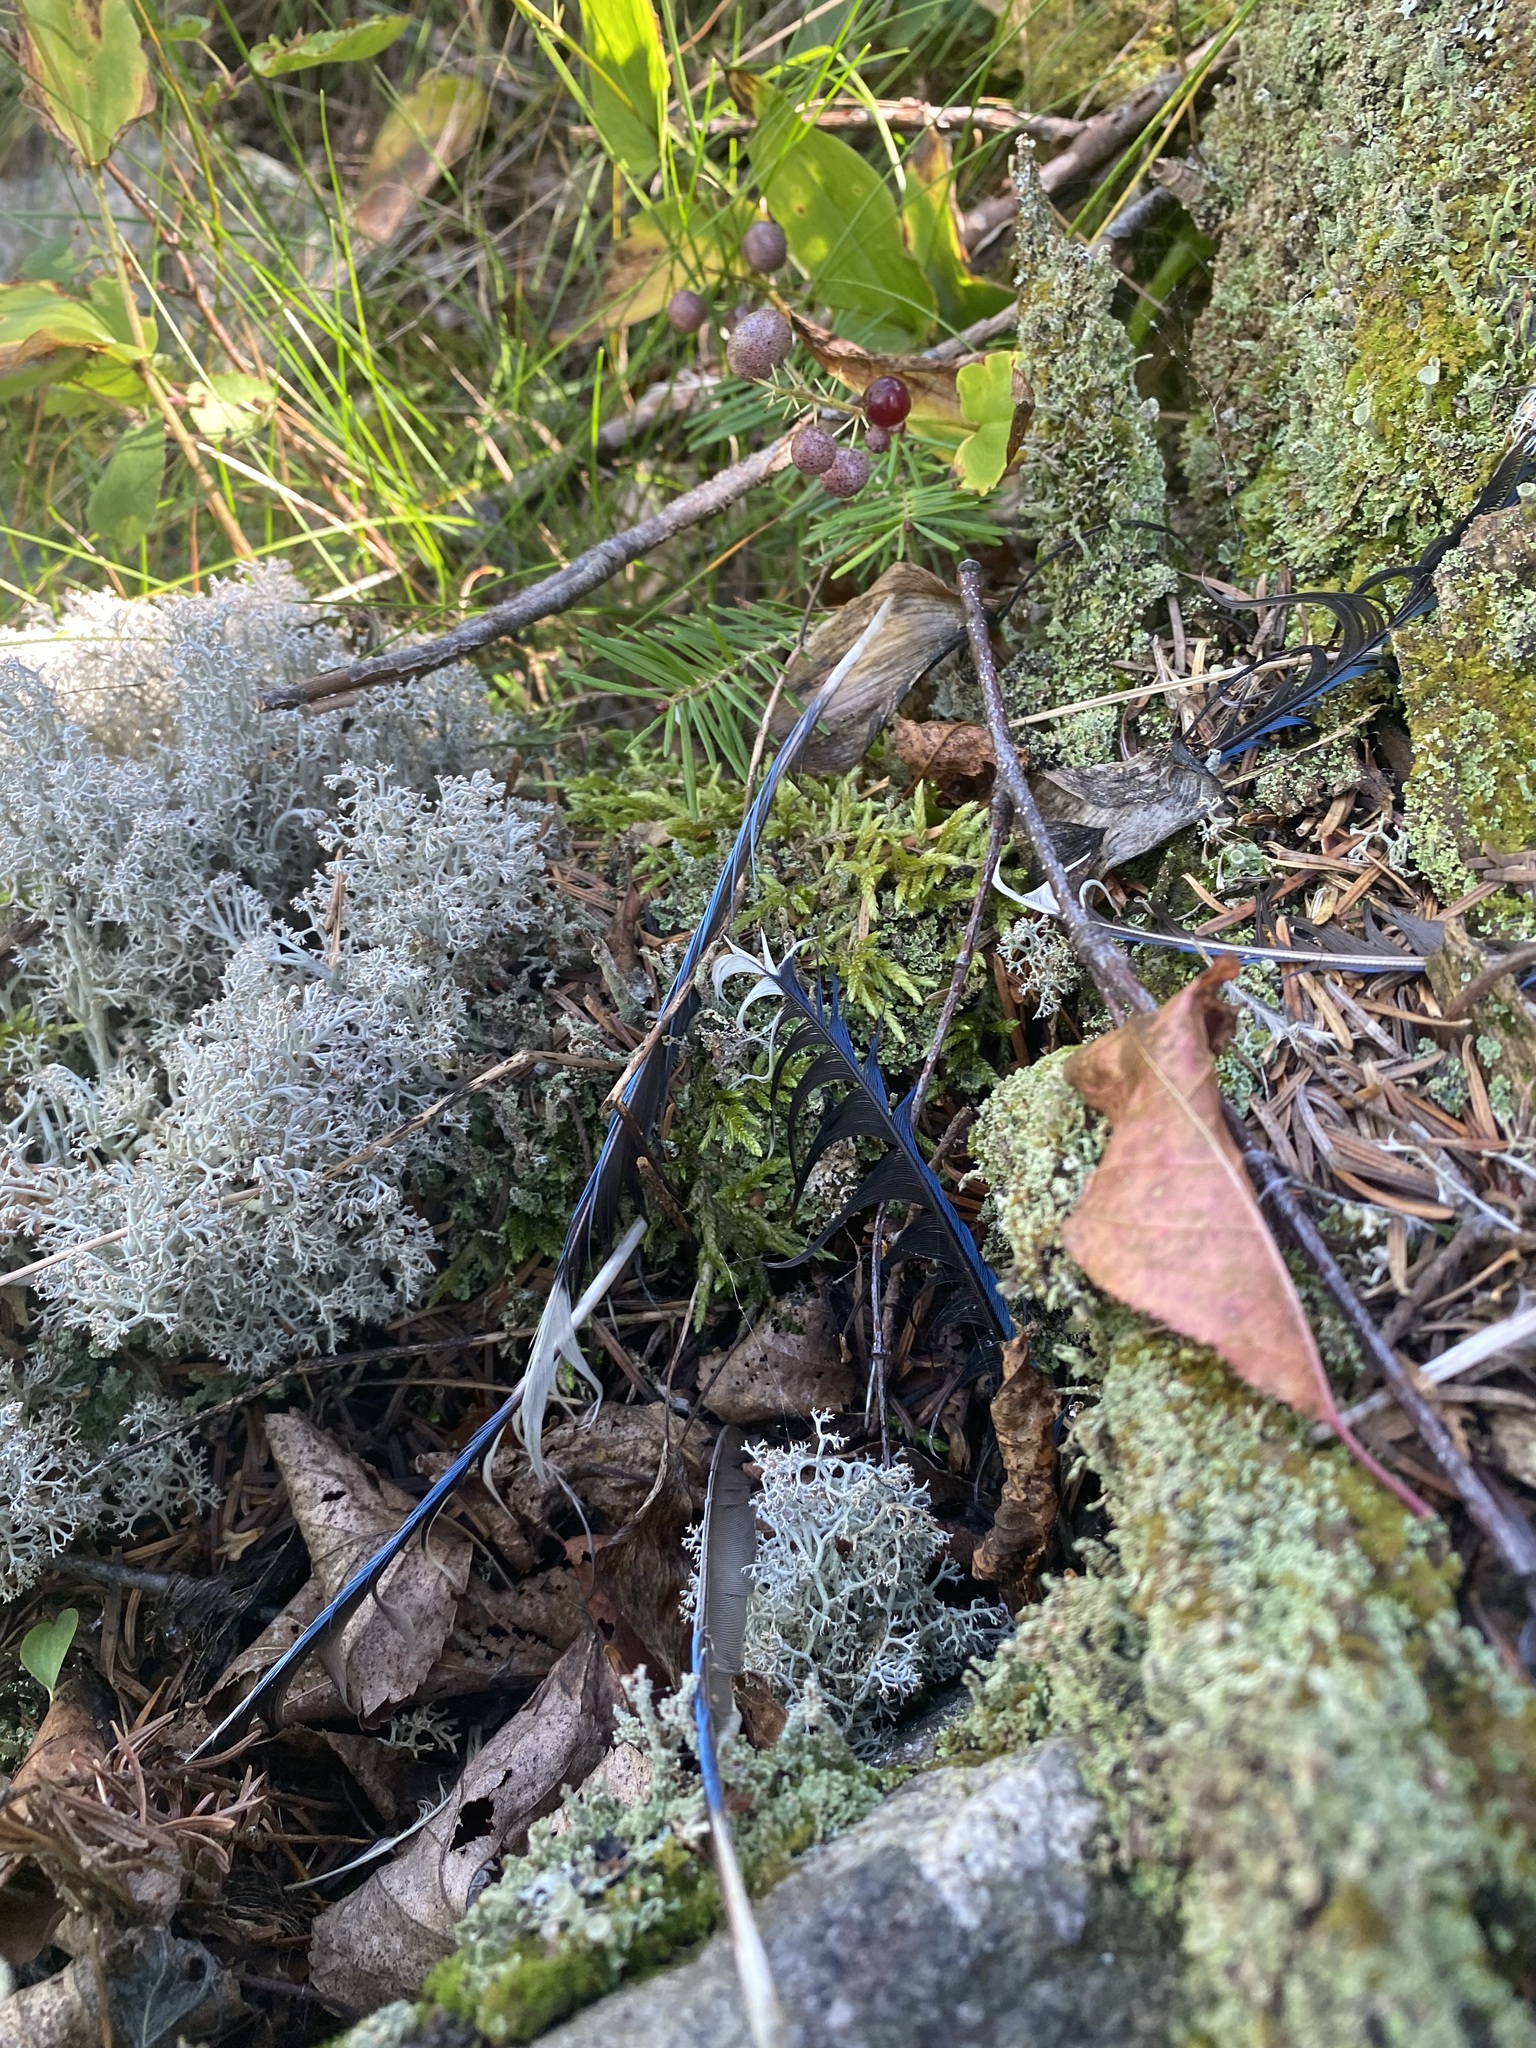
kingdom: Animalia
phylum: Chordata
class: Aves
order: Passeriformes
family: Corvidae
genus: Cyanocitta
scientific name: Cyanocitta cristata
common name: Blue jay
